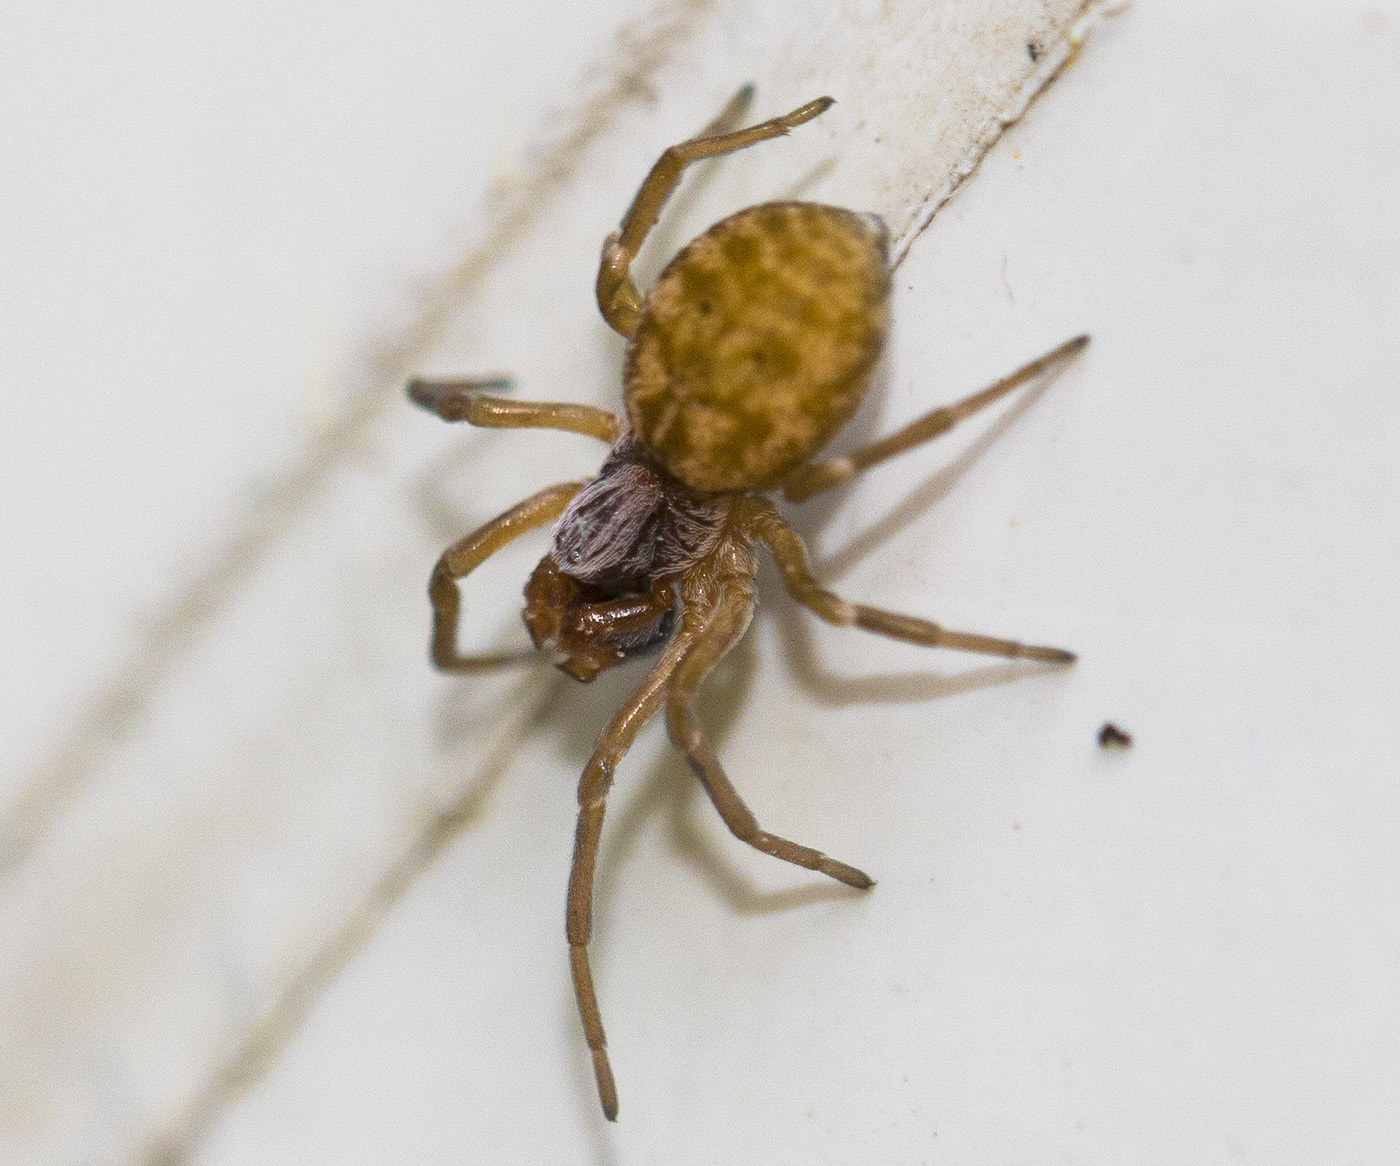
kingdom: Animalia
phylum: Arthropoda
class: Arachnida
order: Araneae
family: Dictynidae
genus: Dictynomorpha
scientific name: Dictynomorpha strandi
